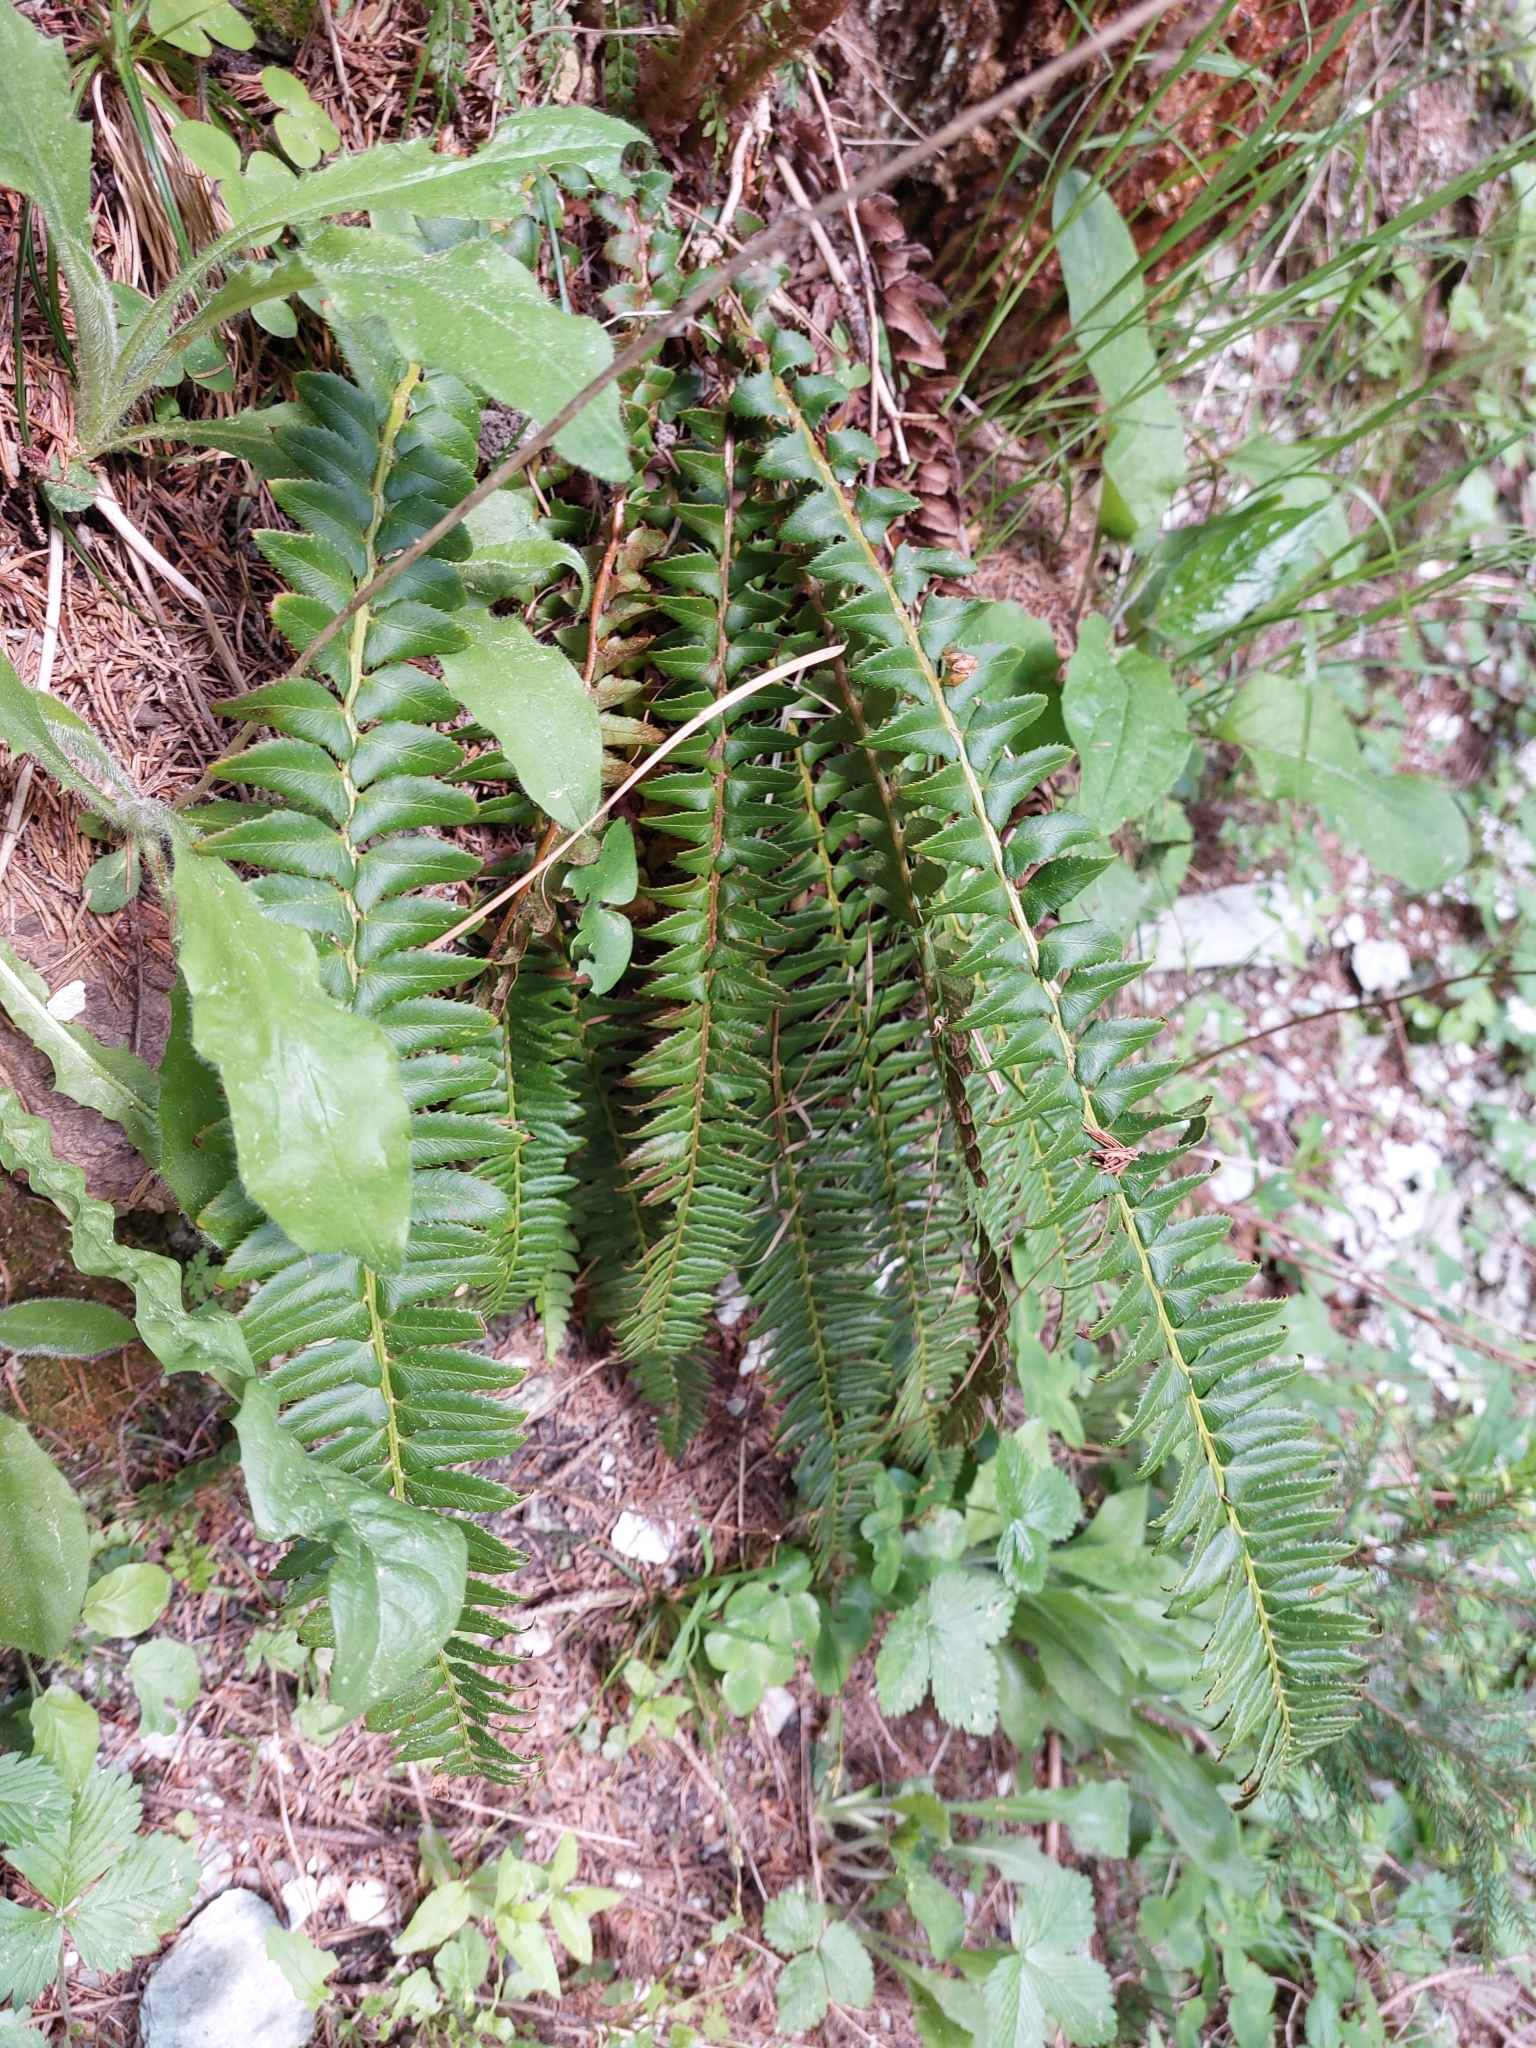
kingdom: Plantae
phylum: Tracheophyta
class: Polypodiopsida
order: Polypodiales
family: Dryopteridaceae
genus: Polystichum
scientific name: Polystichum lonchitis
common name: Holly fern
